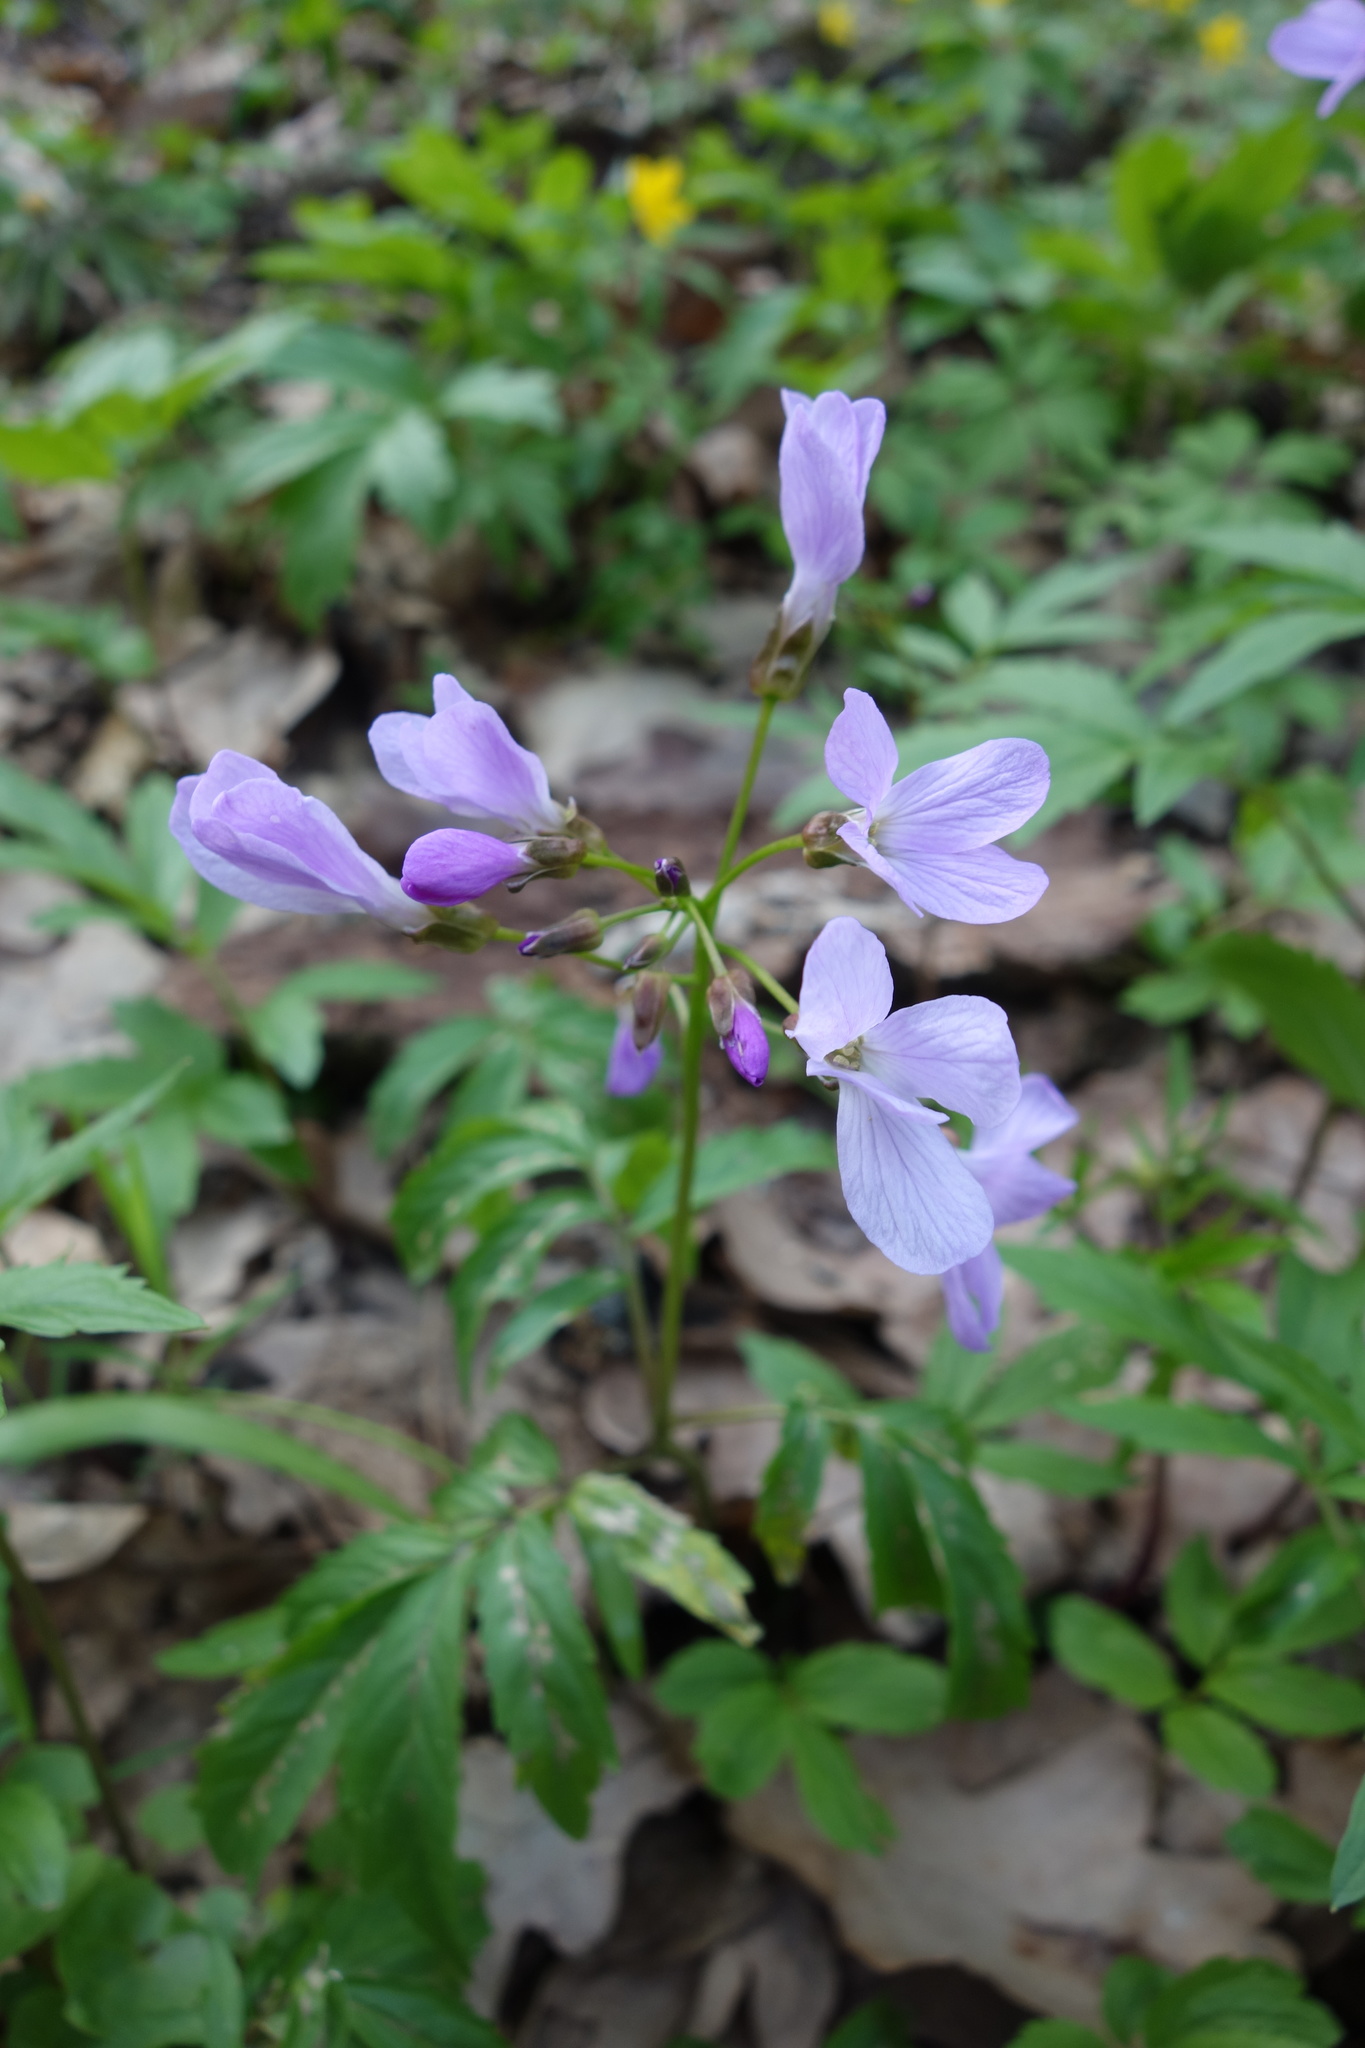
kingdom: Plantae
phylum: Tracheophyta
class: Magnoliopsida
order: Brassicales
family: Brassicaceae
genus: Cardamine
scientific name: Cardamine quinquefolia
